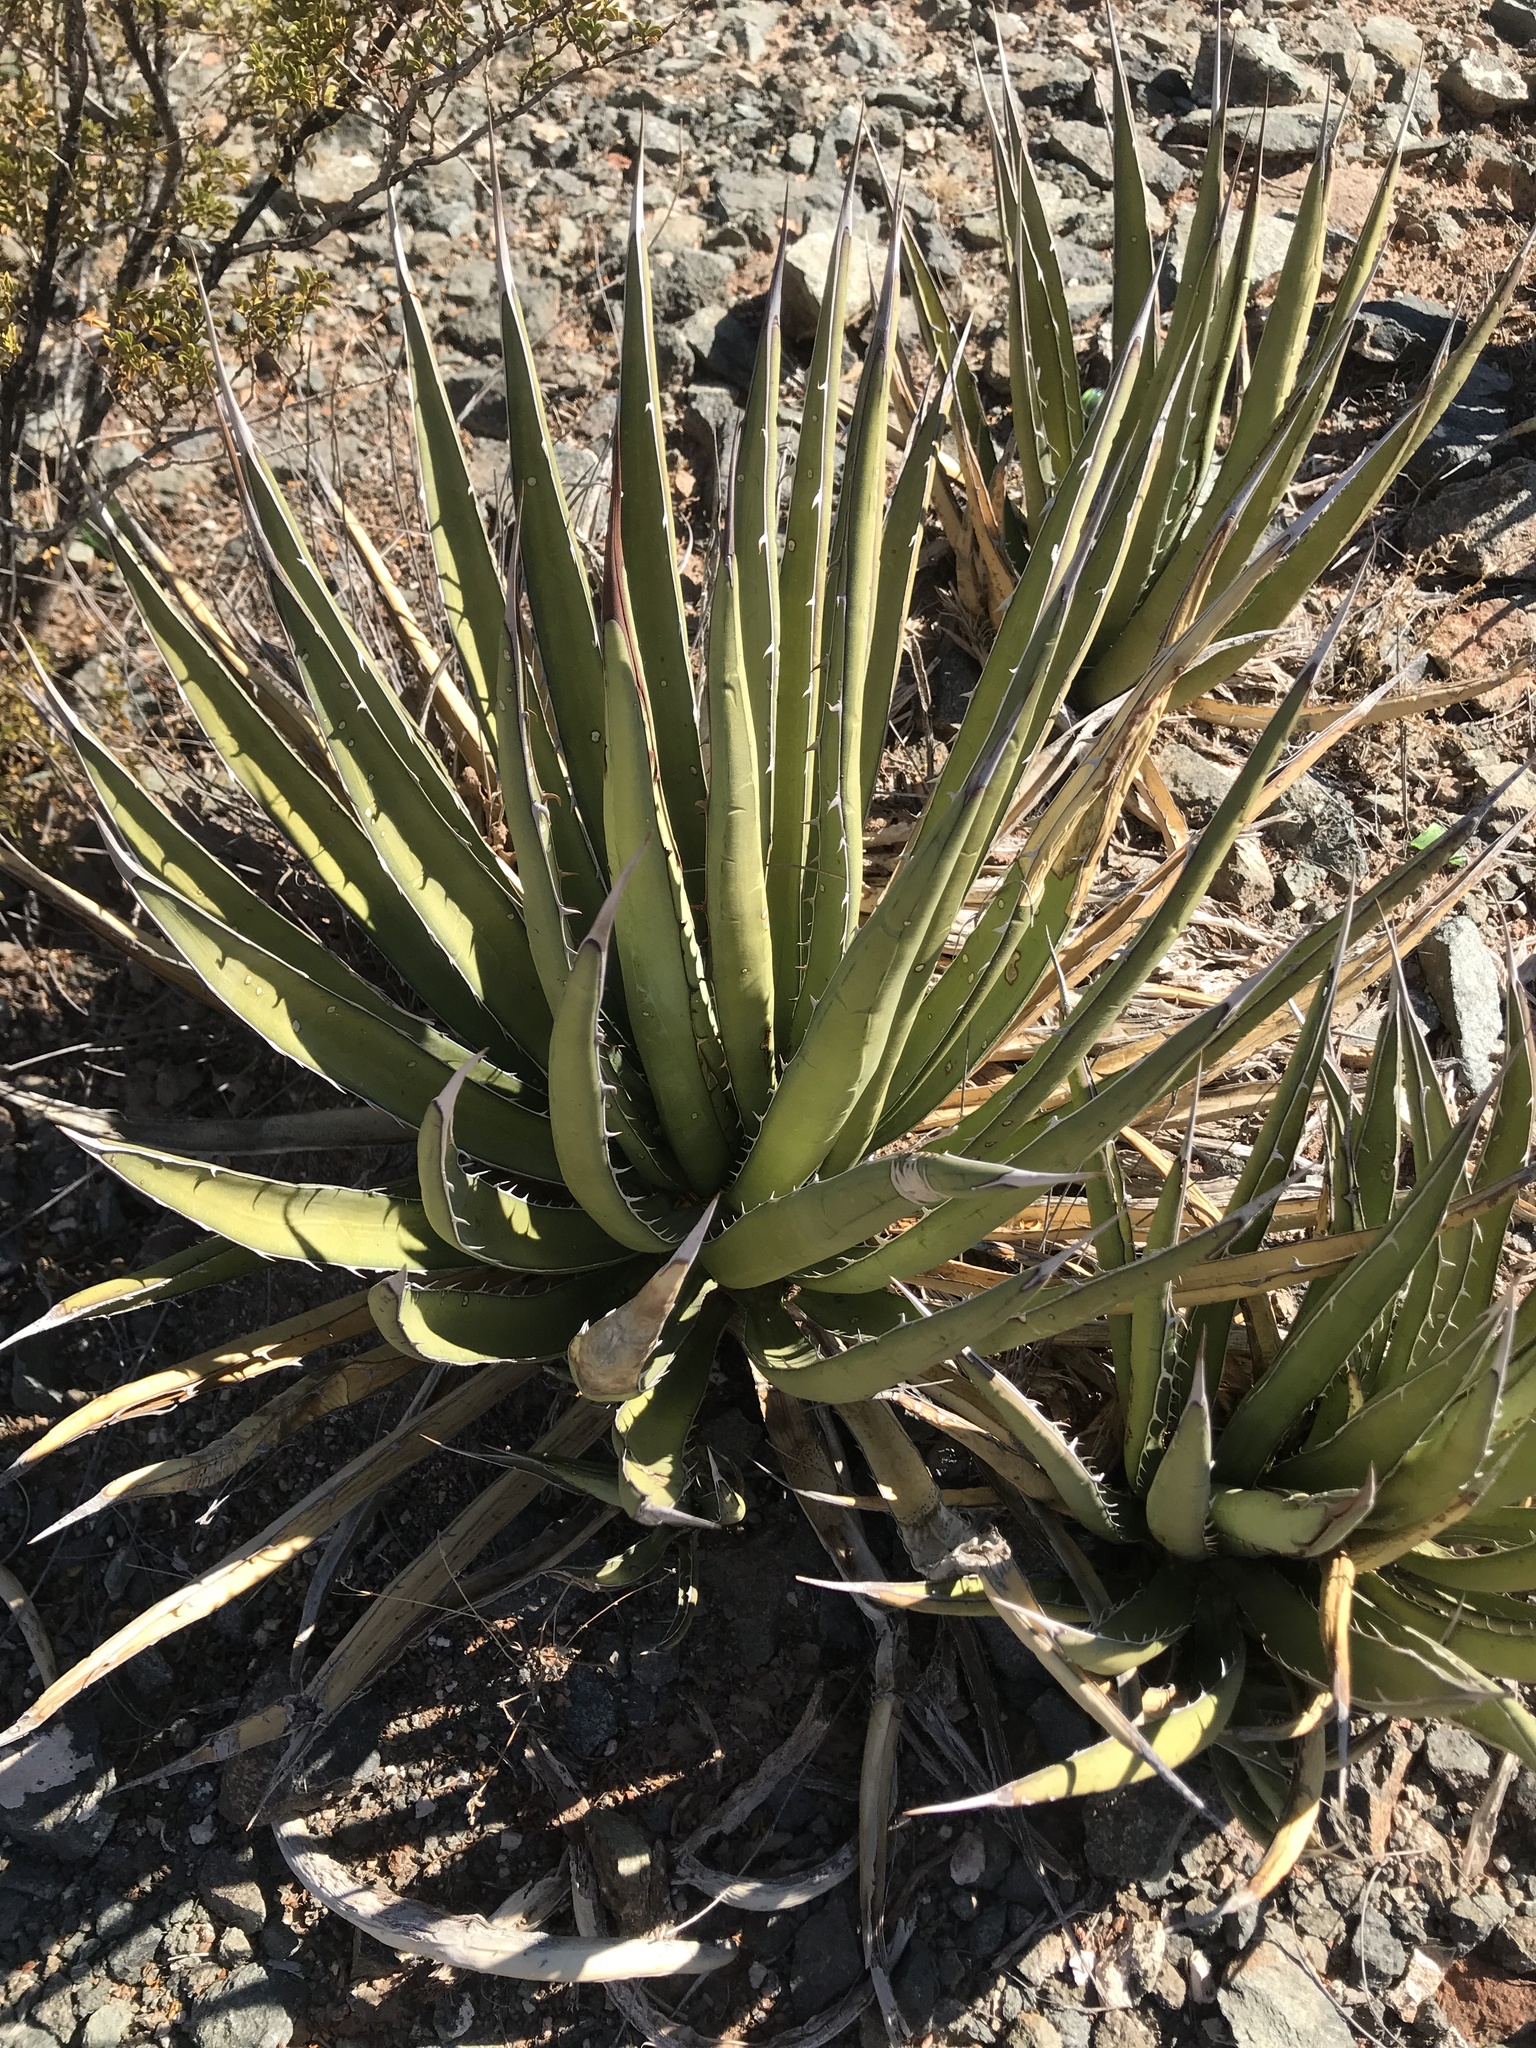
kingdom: Plantae
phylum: Tracheophyta
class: Liliopsida
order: Asparagales
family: Asparagaceae
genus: Agave
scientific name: Agave lechuguilla
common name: Lecheguilla agave
